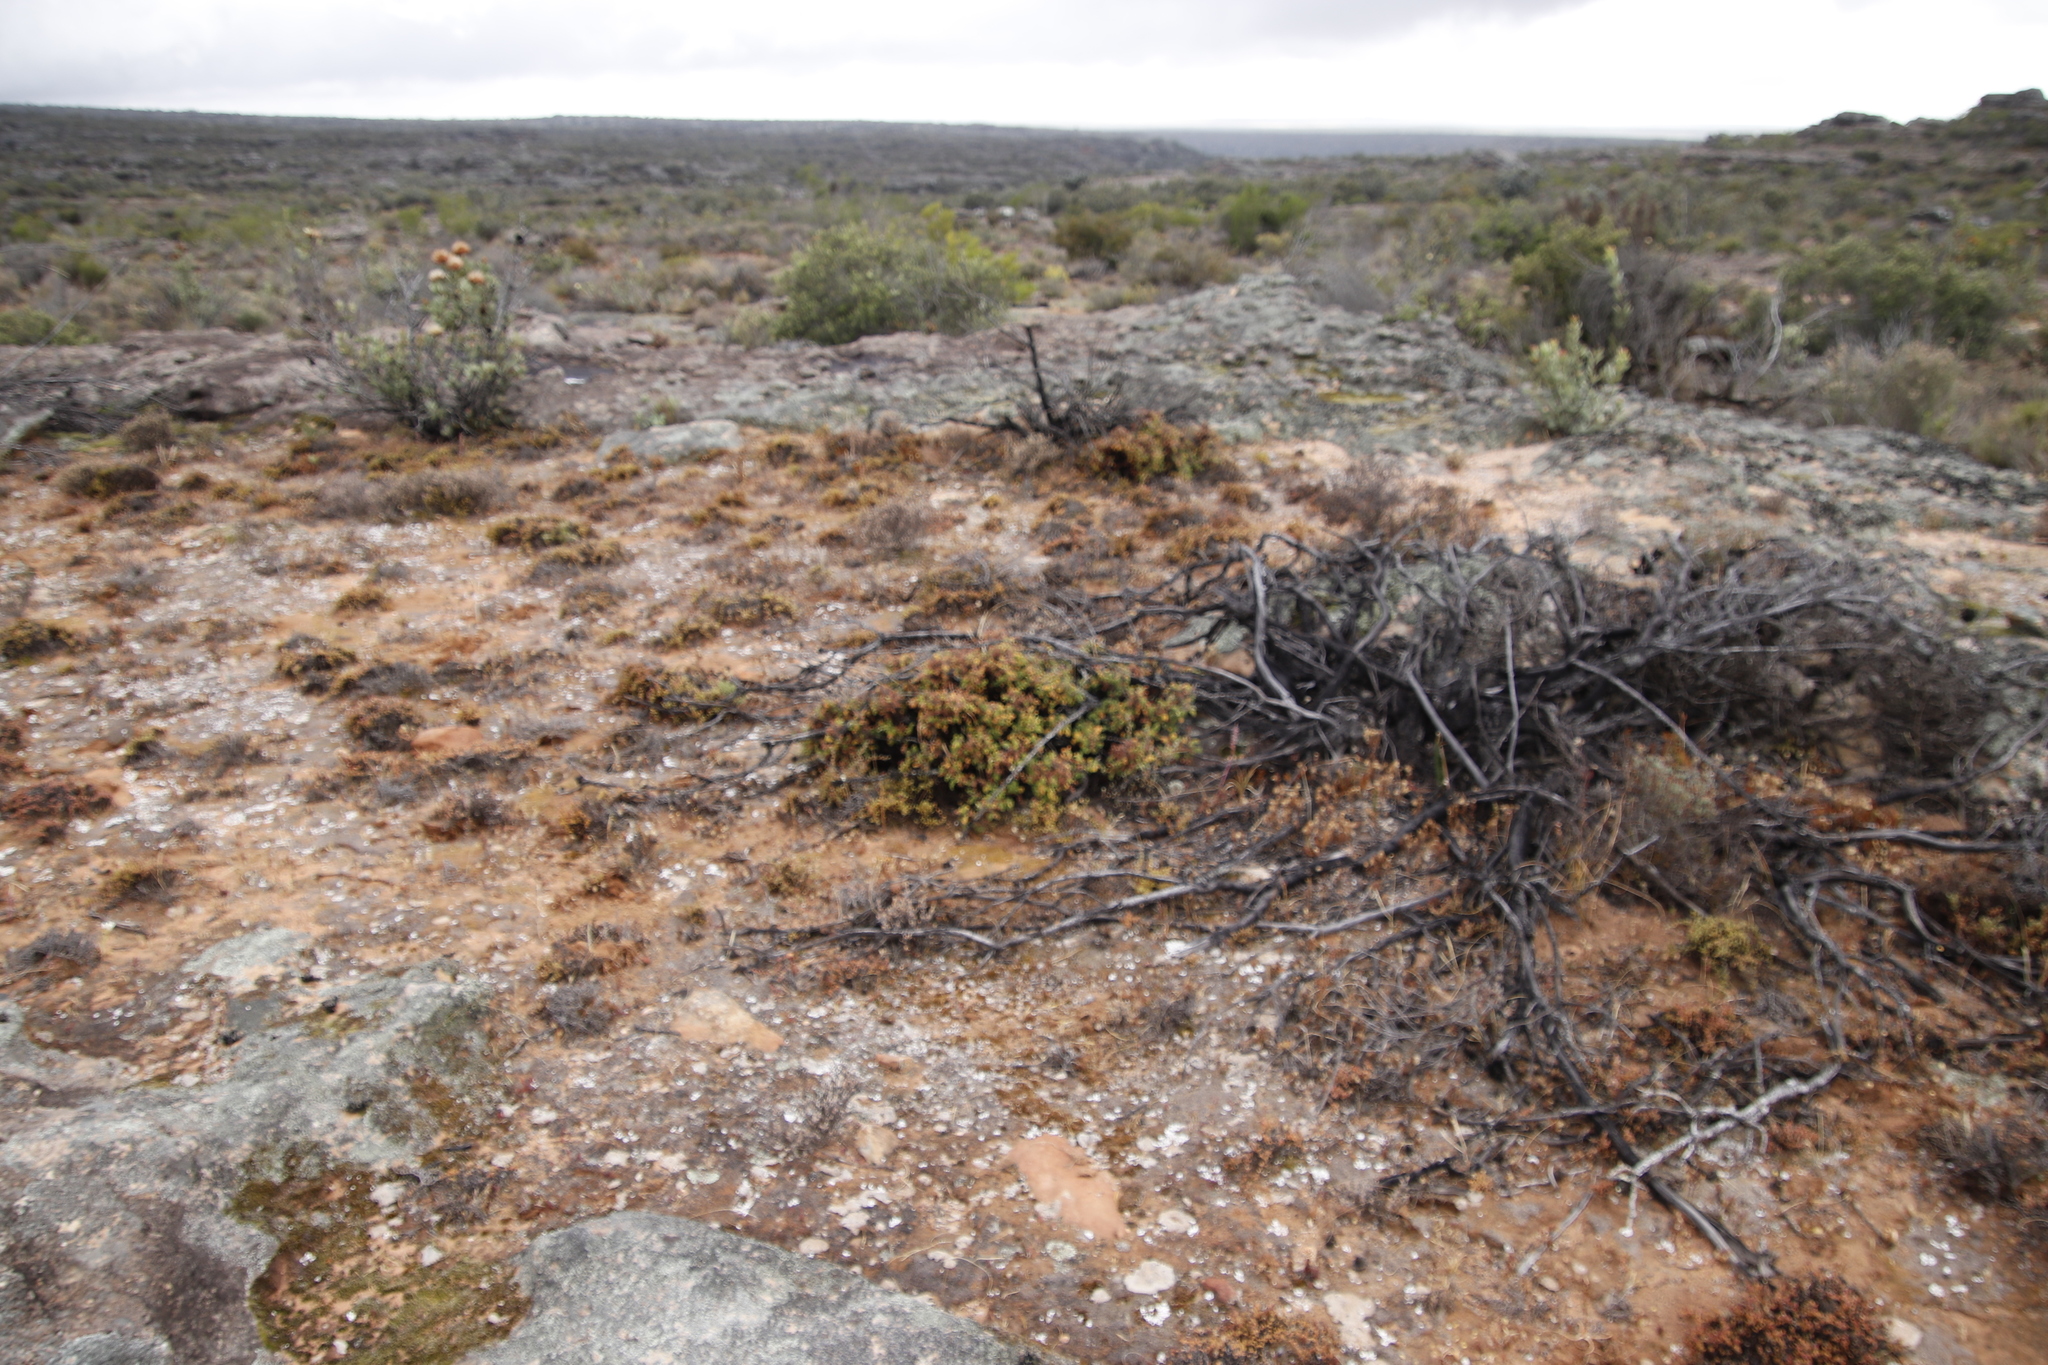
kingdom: Plantae
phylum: Tracheophyta
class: Magnoliopsida
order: Geraniales
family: Geraniaceae
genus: Pelargonium
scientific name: Pelargonium alternans
